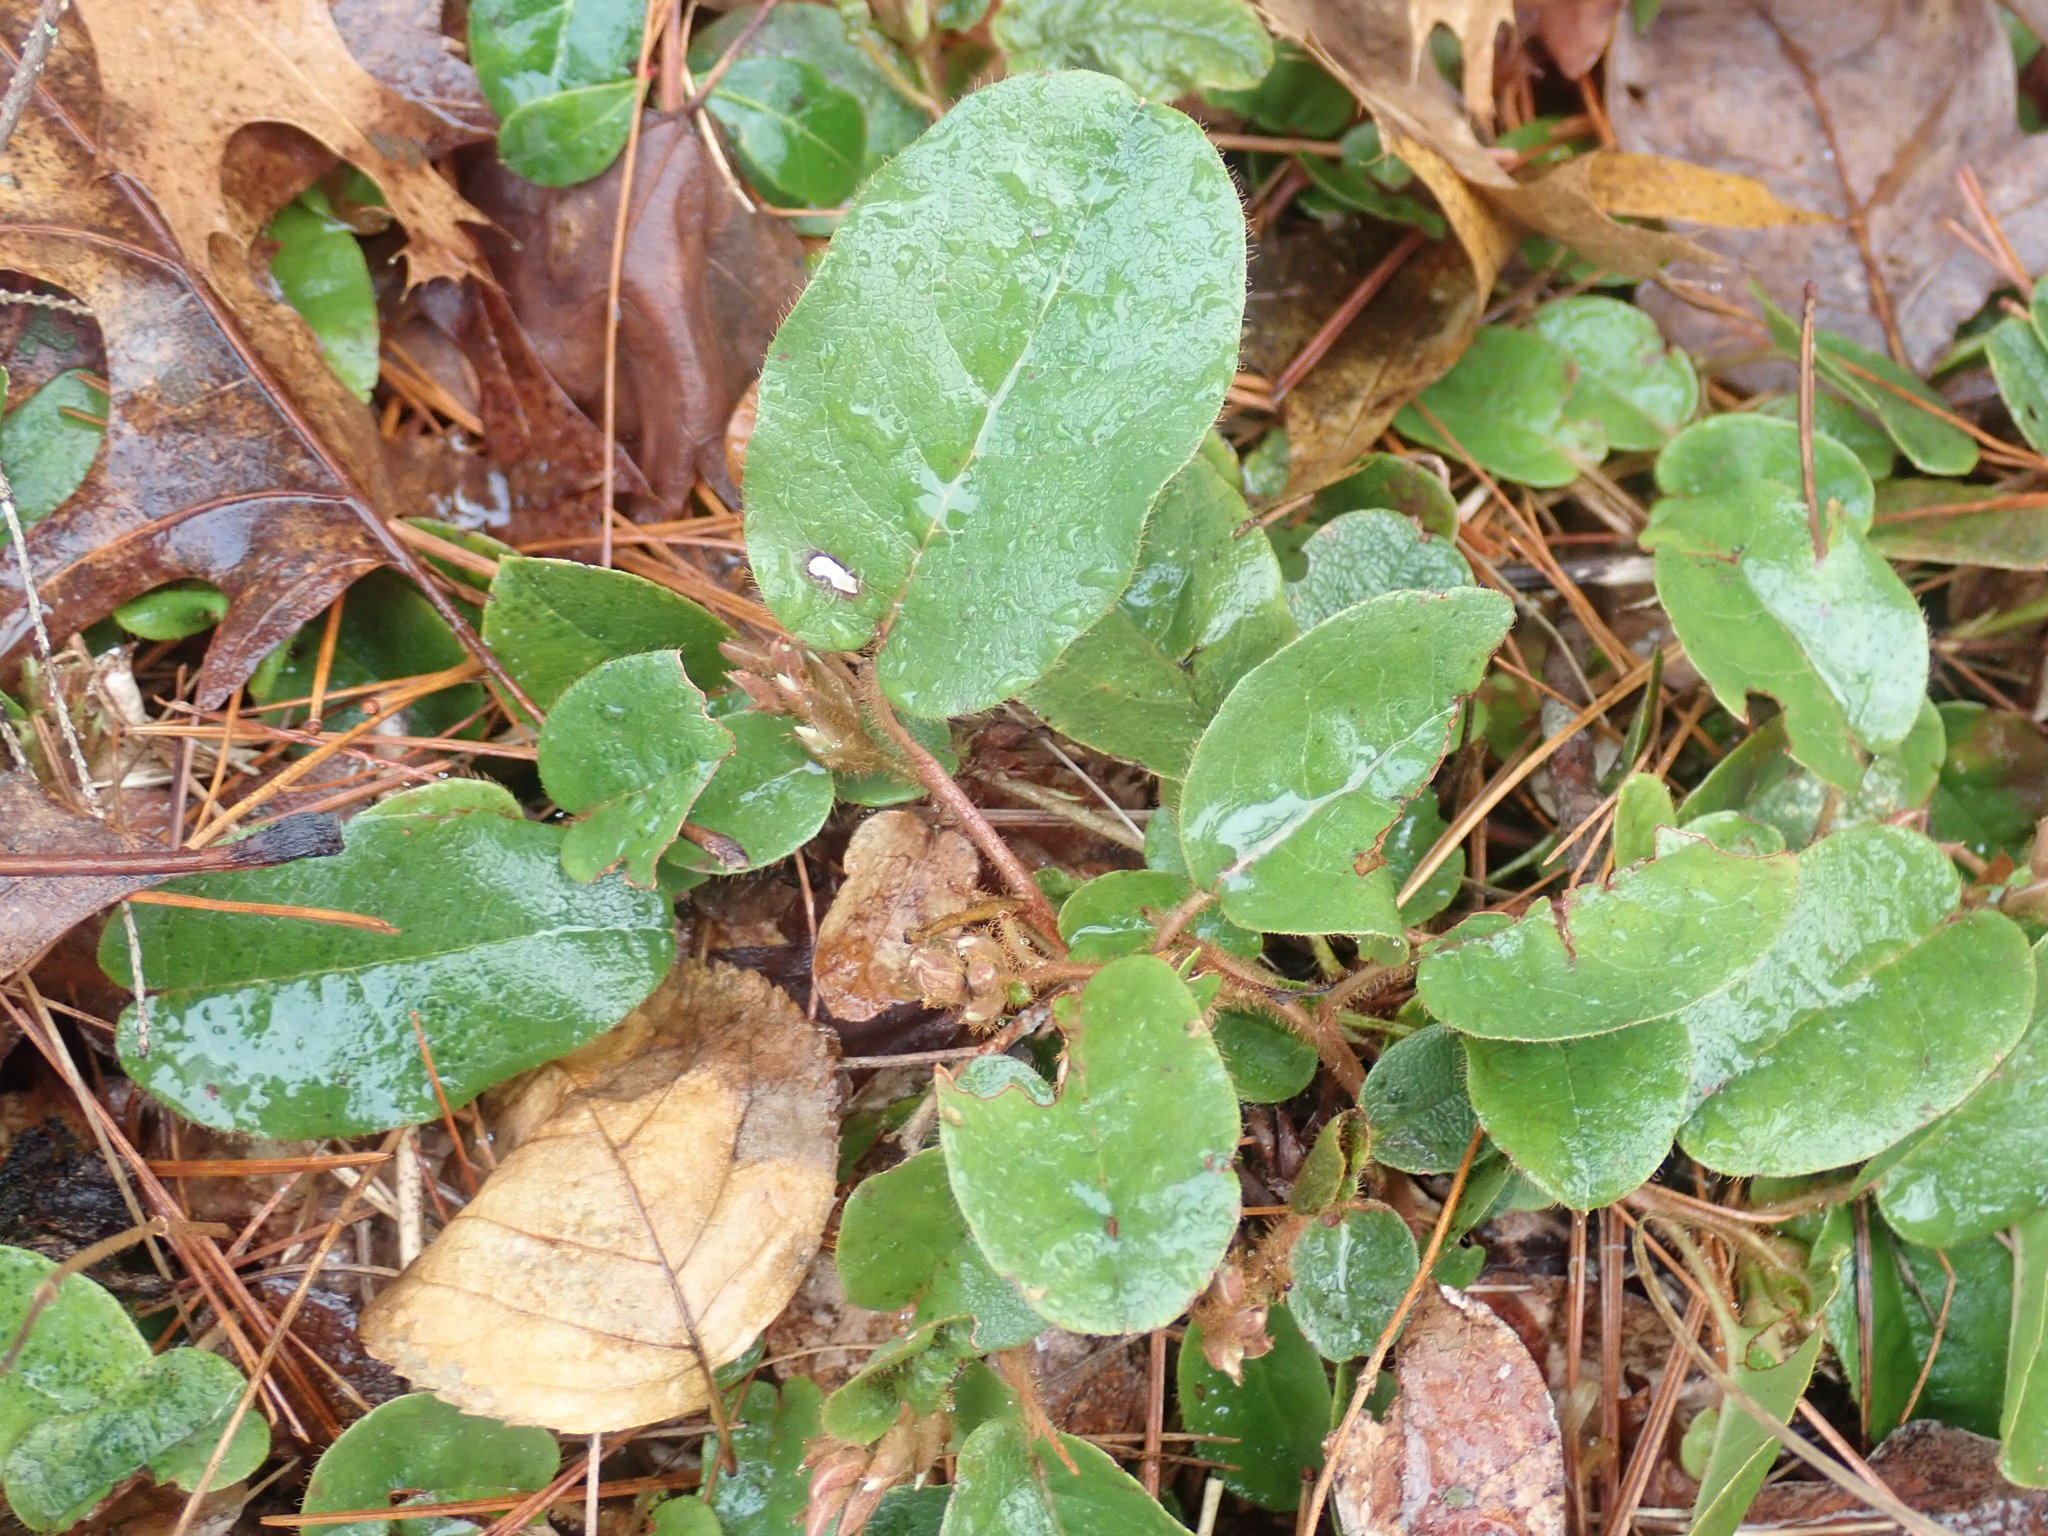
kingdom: Plantae
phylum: Tracheophyta
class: Magnoliopsida
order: Ericales
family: Ericaceae
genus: Epigaea
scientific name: Epigaea repens
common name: Gravelroot
